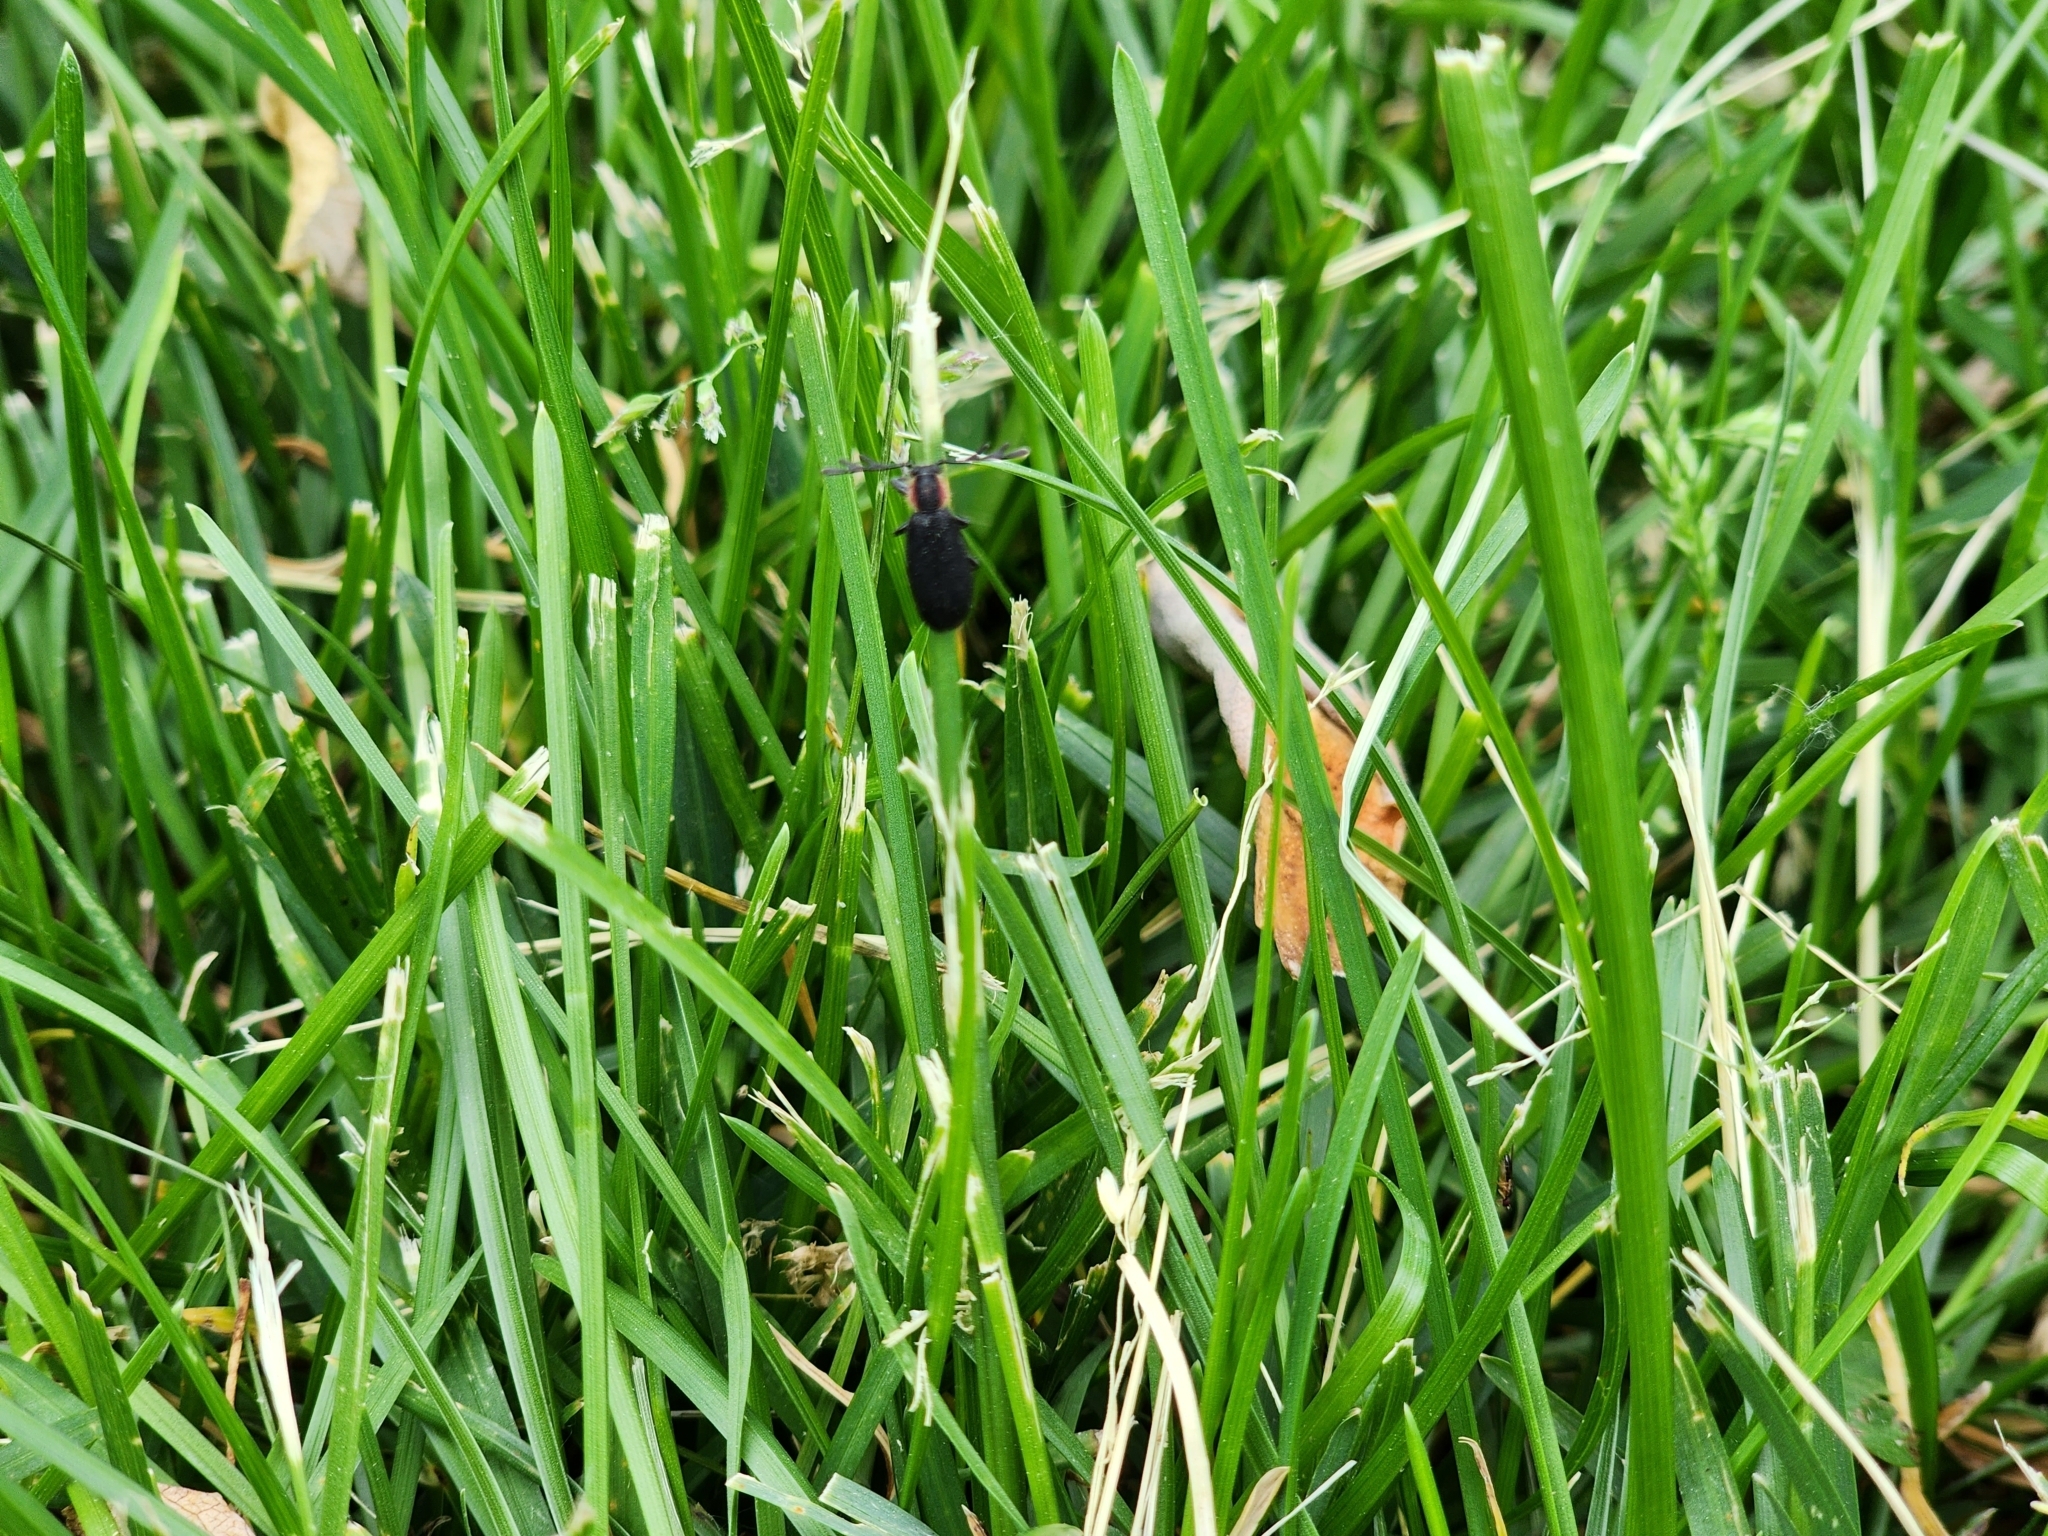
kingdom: Animalia
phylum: Arthropoda
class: Insecta
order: Coleoptera
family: Cleridae
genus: Chariessa
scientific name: Chariessa pilosa
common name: Pilose checkered beetle
